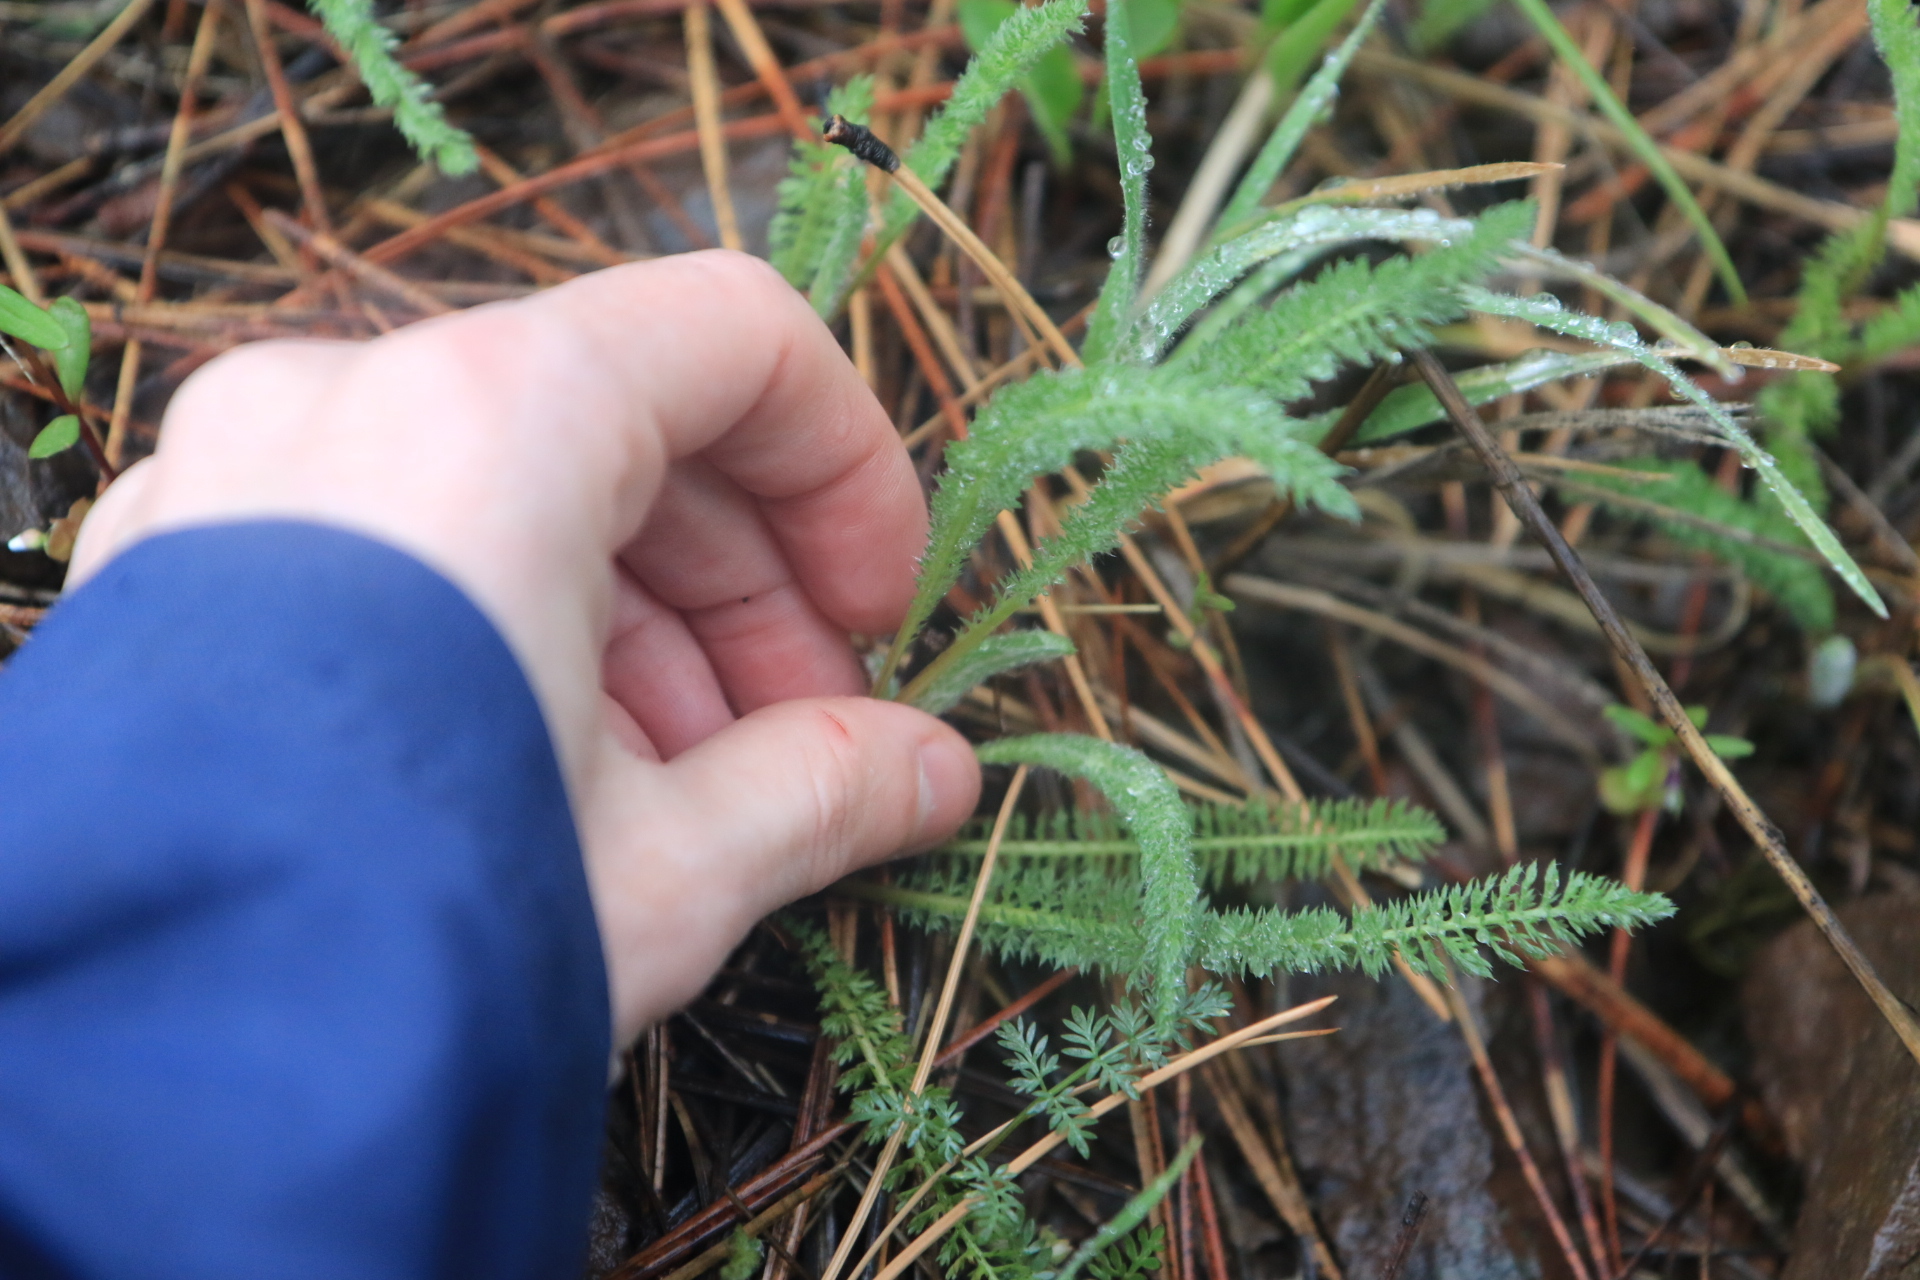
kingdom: Plantae
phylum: Tracheophyta
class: Magnoliopsida
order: Asterales
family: Asteraceae
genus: Achillea
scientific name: Achillea millefolium
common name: Yarrow
